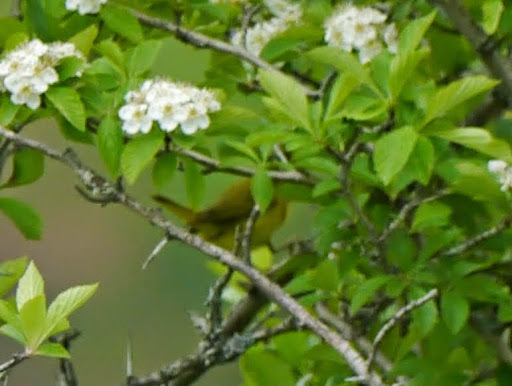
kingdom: Animalia
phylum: Chordata
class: Aves
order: Passeriformes
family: Parulidae
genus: Setophaga
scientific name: Setophaga petechia
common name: Yellow warbler
